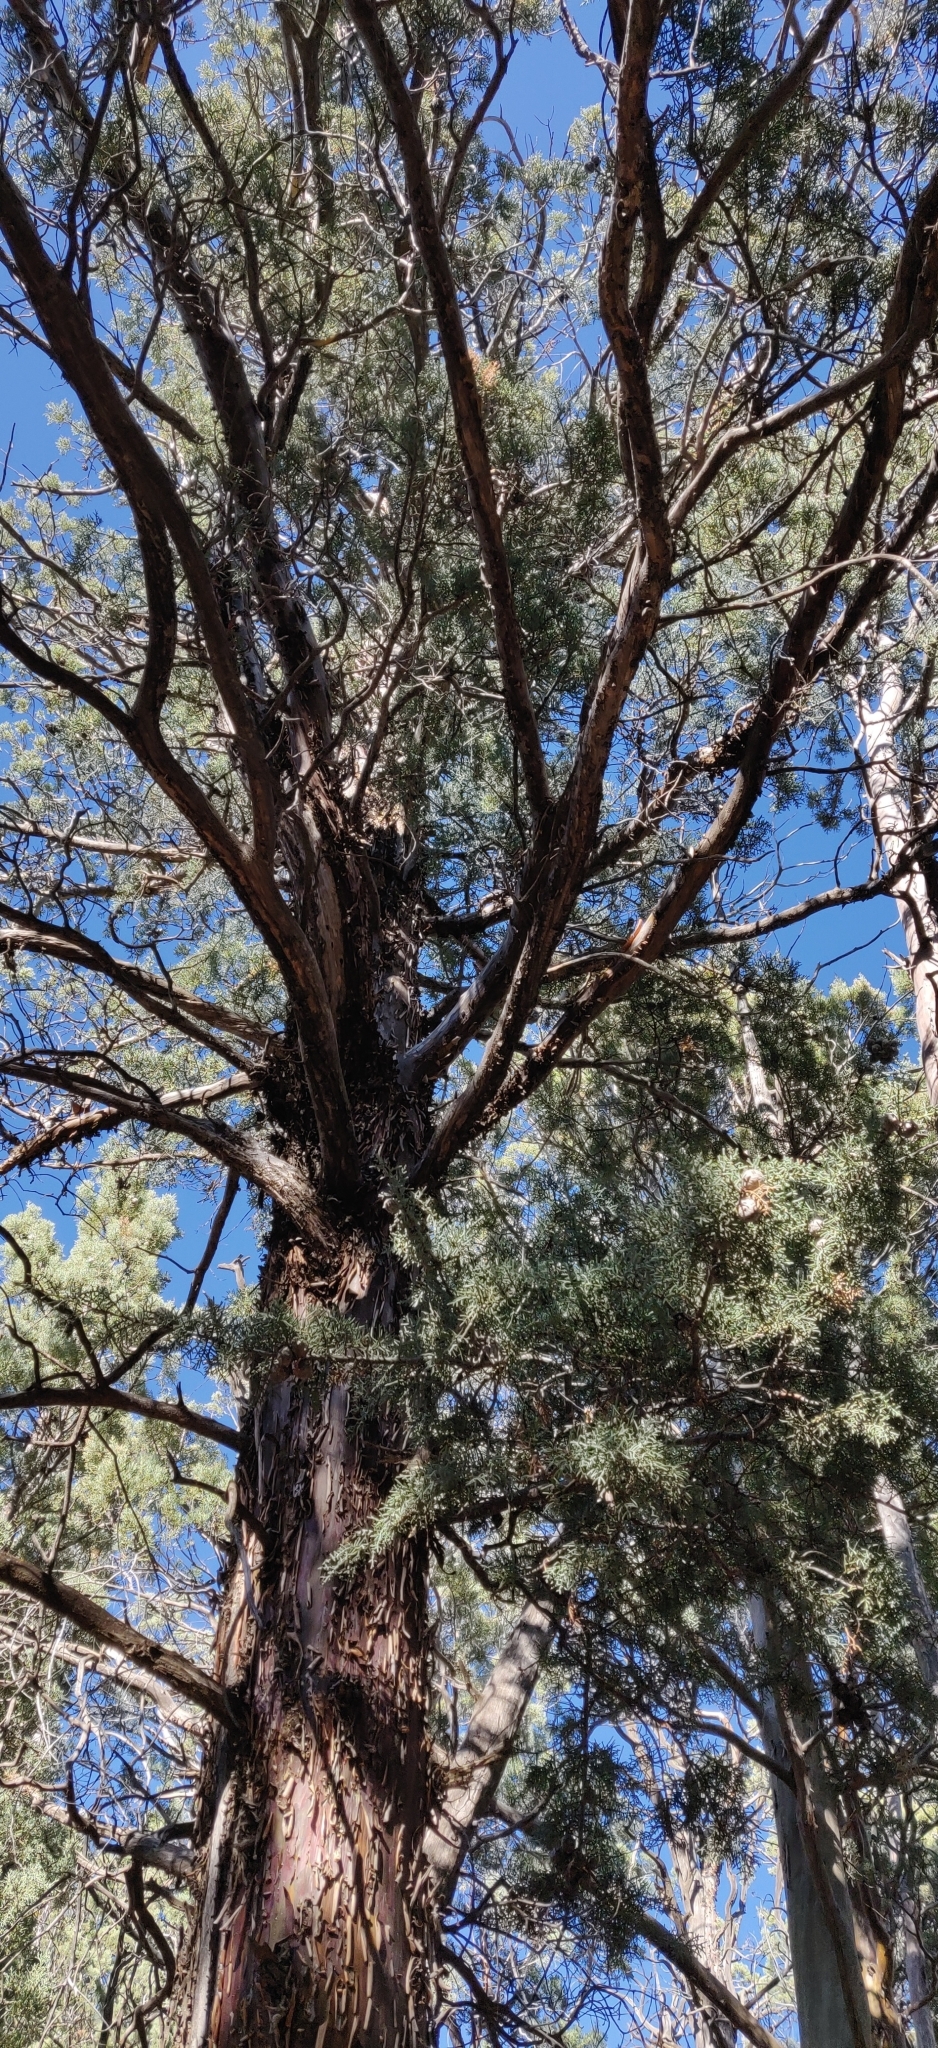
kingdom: Plantae
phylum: Tracheophyta
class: Pinopsida
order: Pinales
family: Cupressaceae
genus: Cupressus
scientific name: Cupressus arizonica
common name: Arizona cypress
